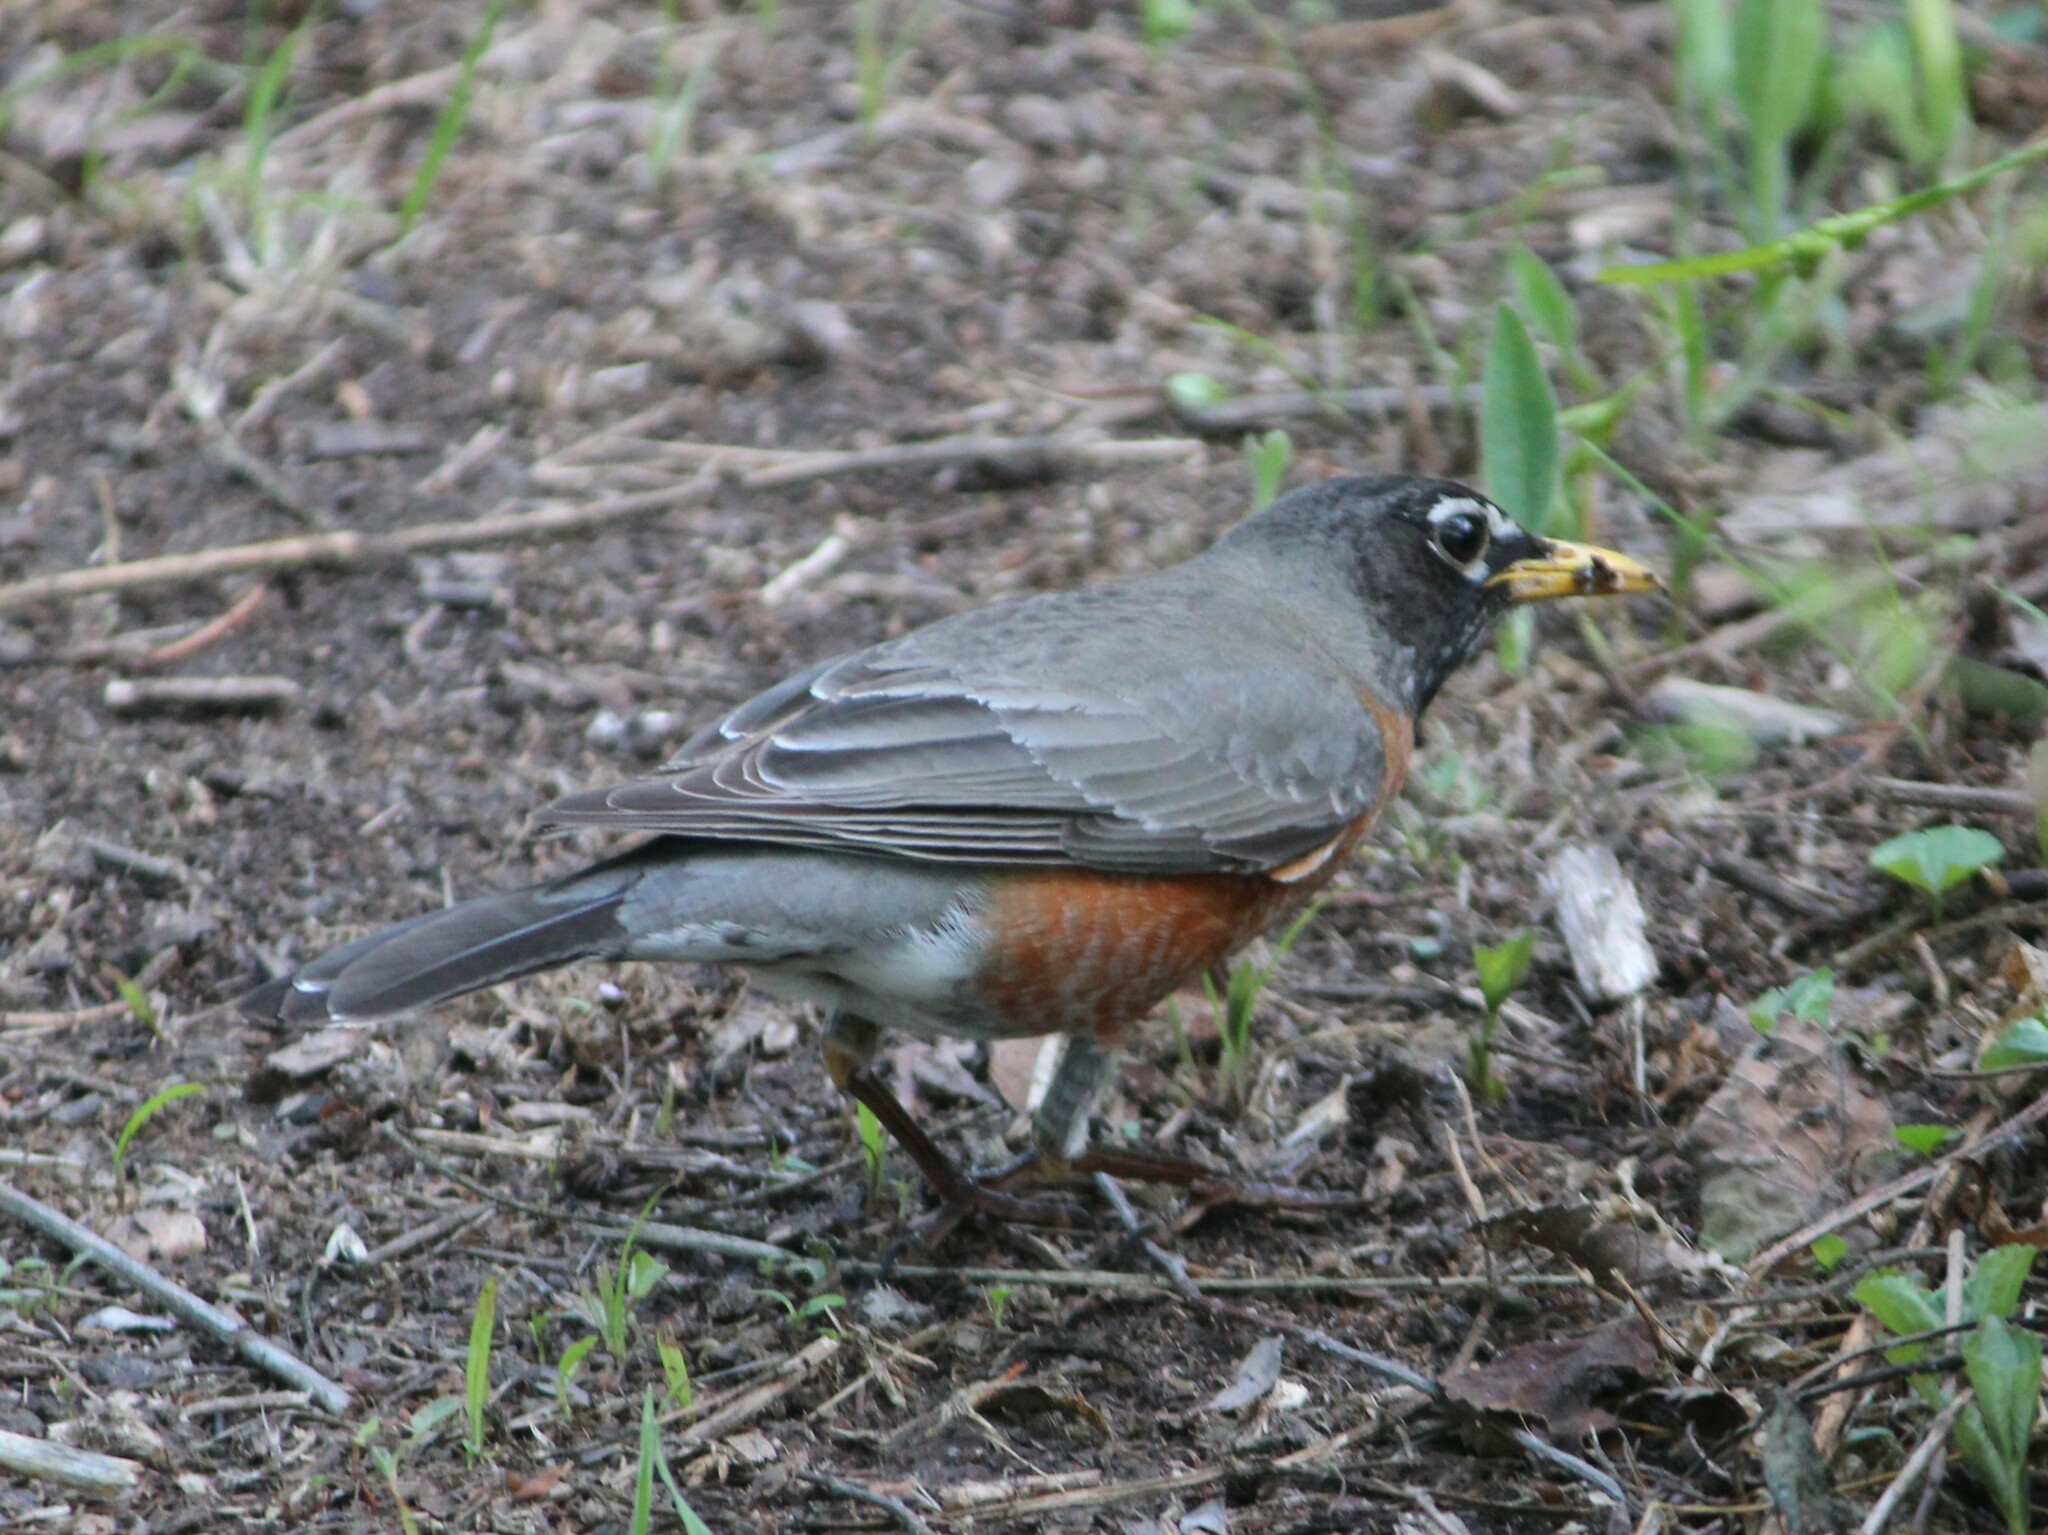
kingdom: Animalia
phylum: Chordata
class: Aves
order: Passeriformes
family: Turdidae
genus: Turdus
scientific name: Turdus migratorius
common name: American robin
